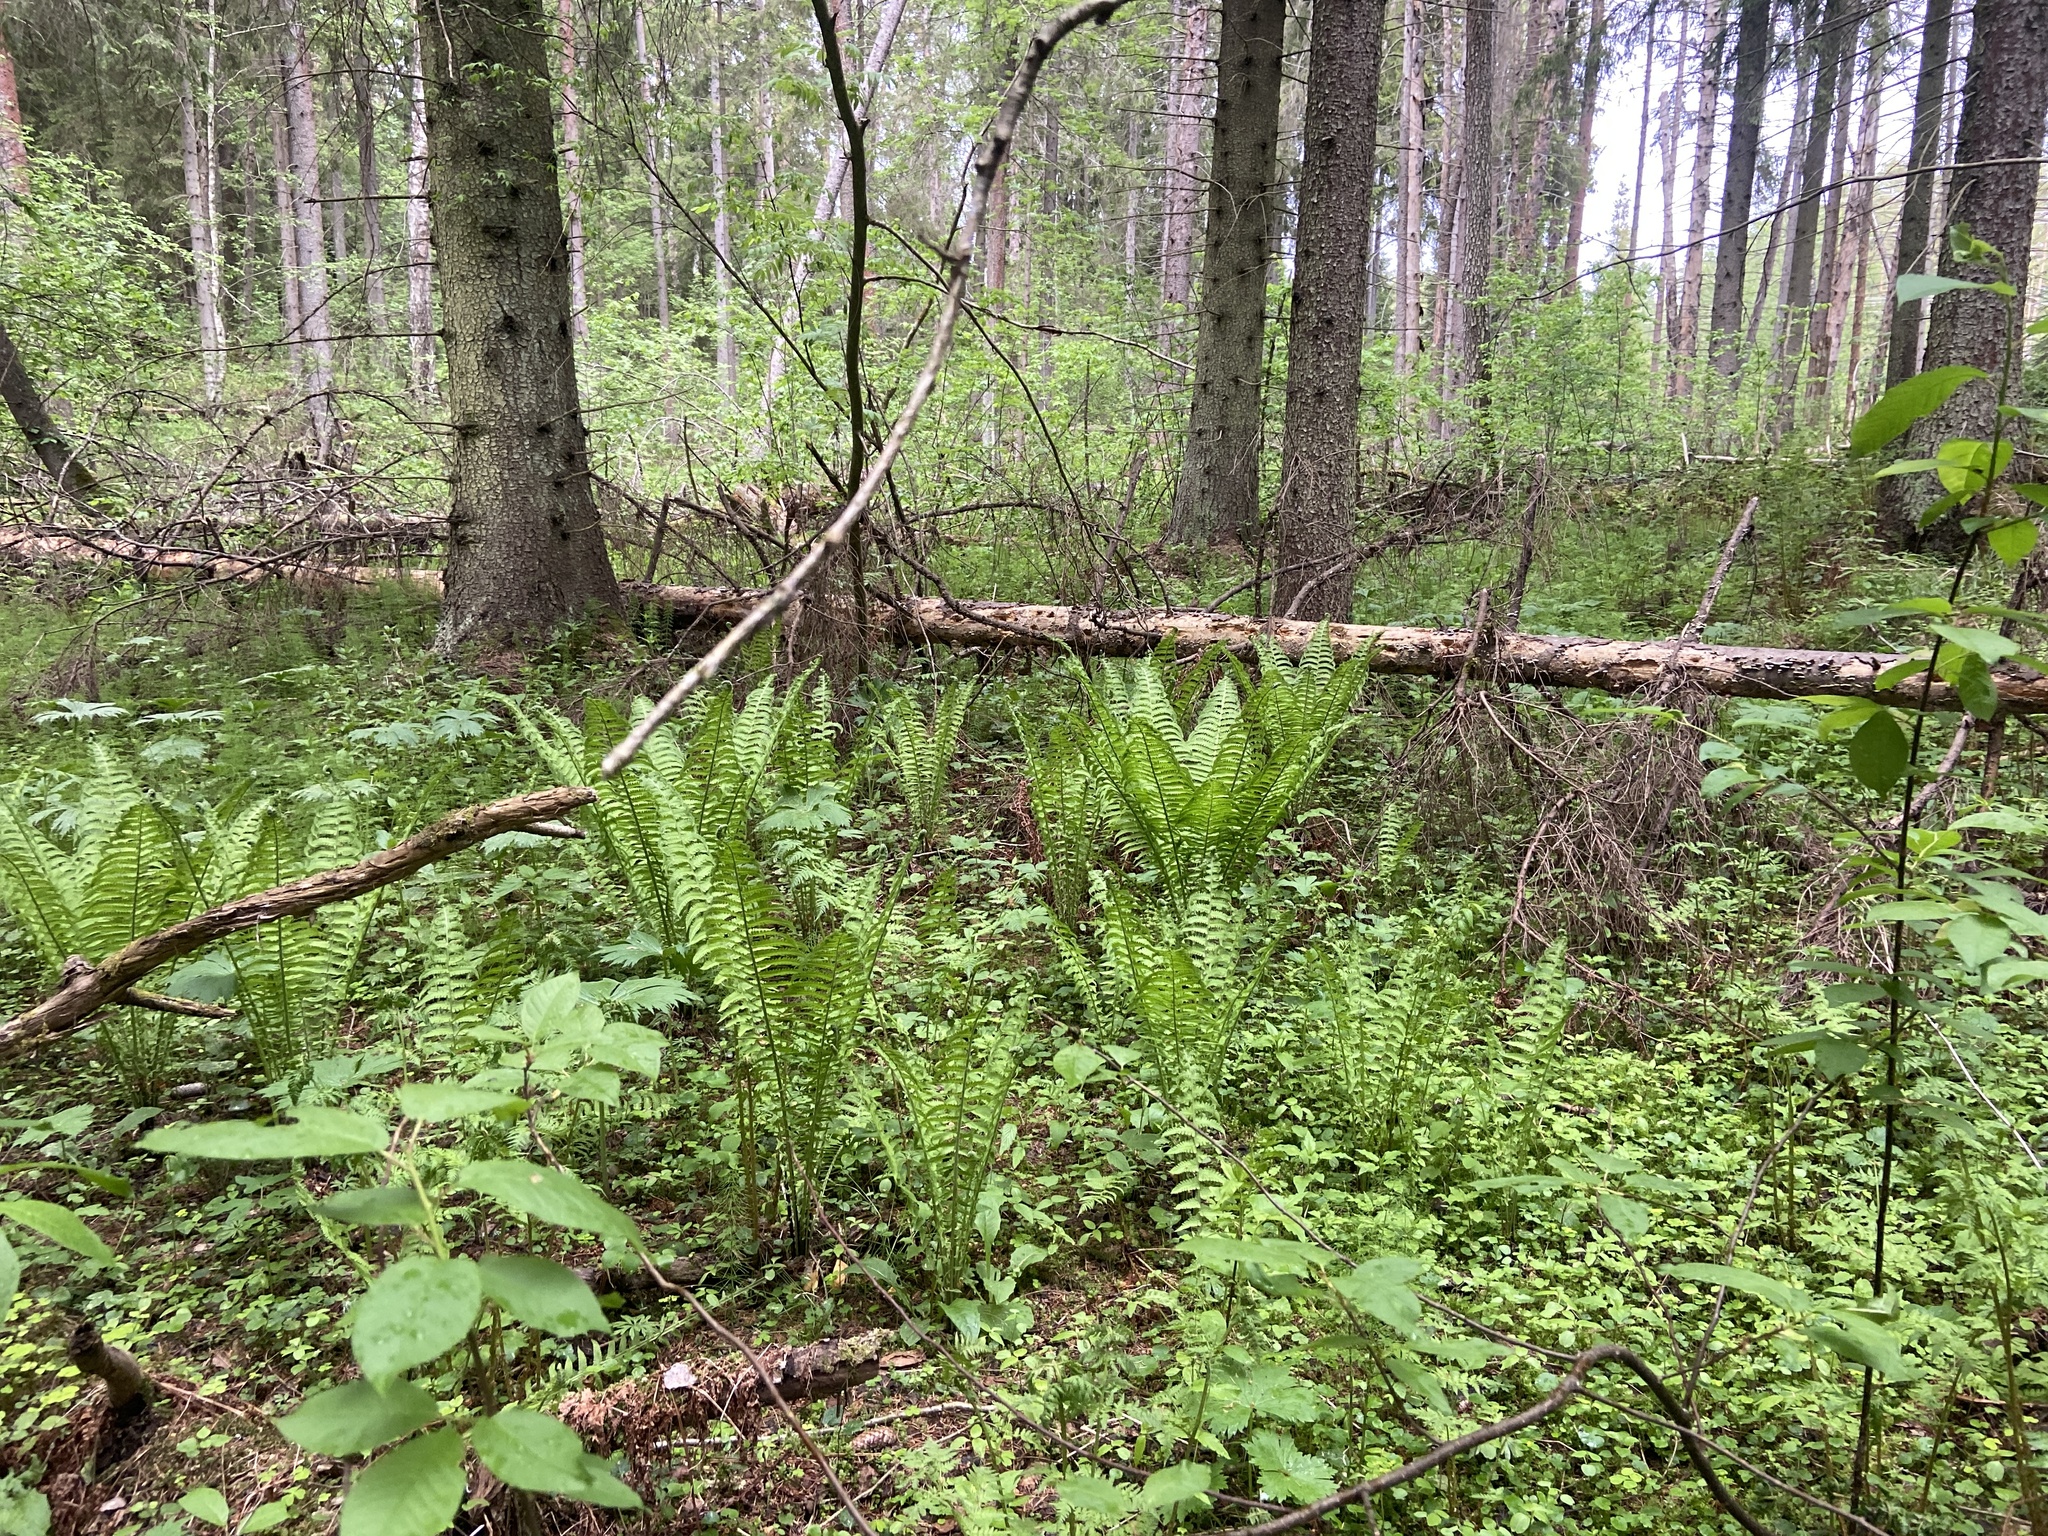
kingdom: Plantae
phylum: Tracheophyta
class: Polypodiopsida
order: Polypodiales
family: Onocleaceae
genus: Matteuccia
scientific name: Matteuccia struthiopteris
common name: Ostrich fern
